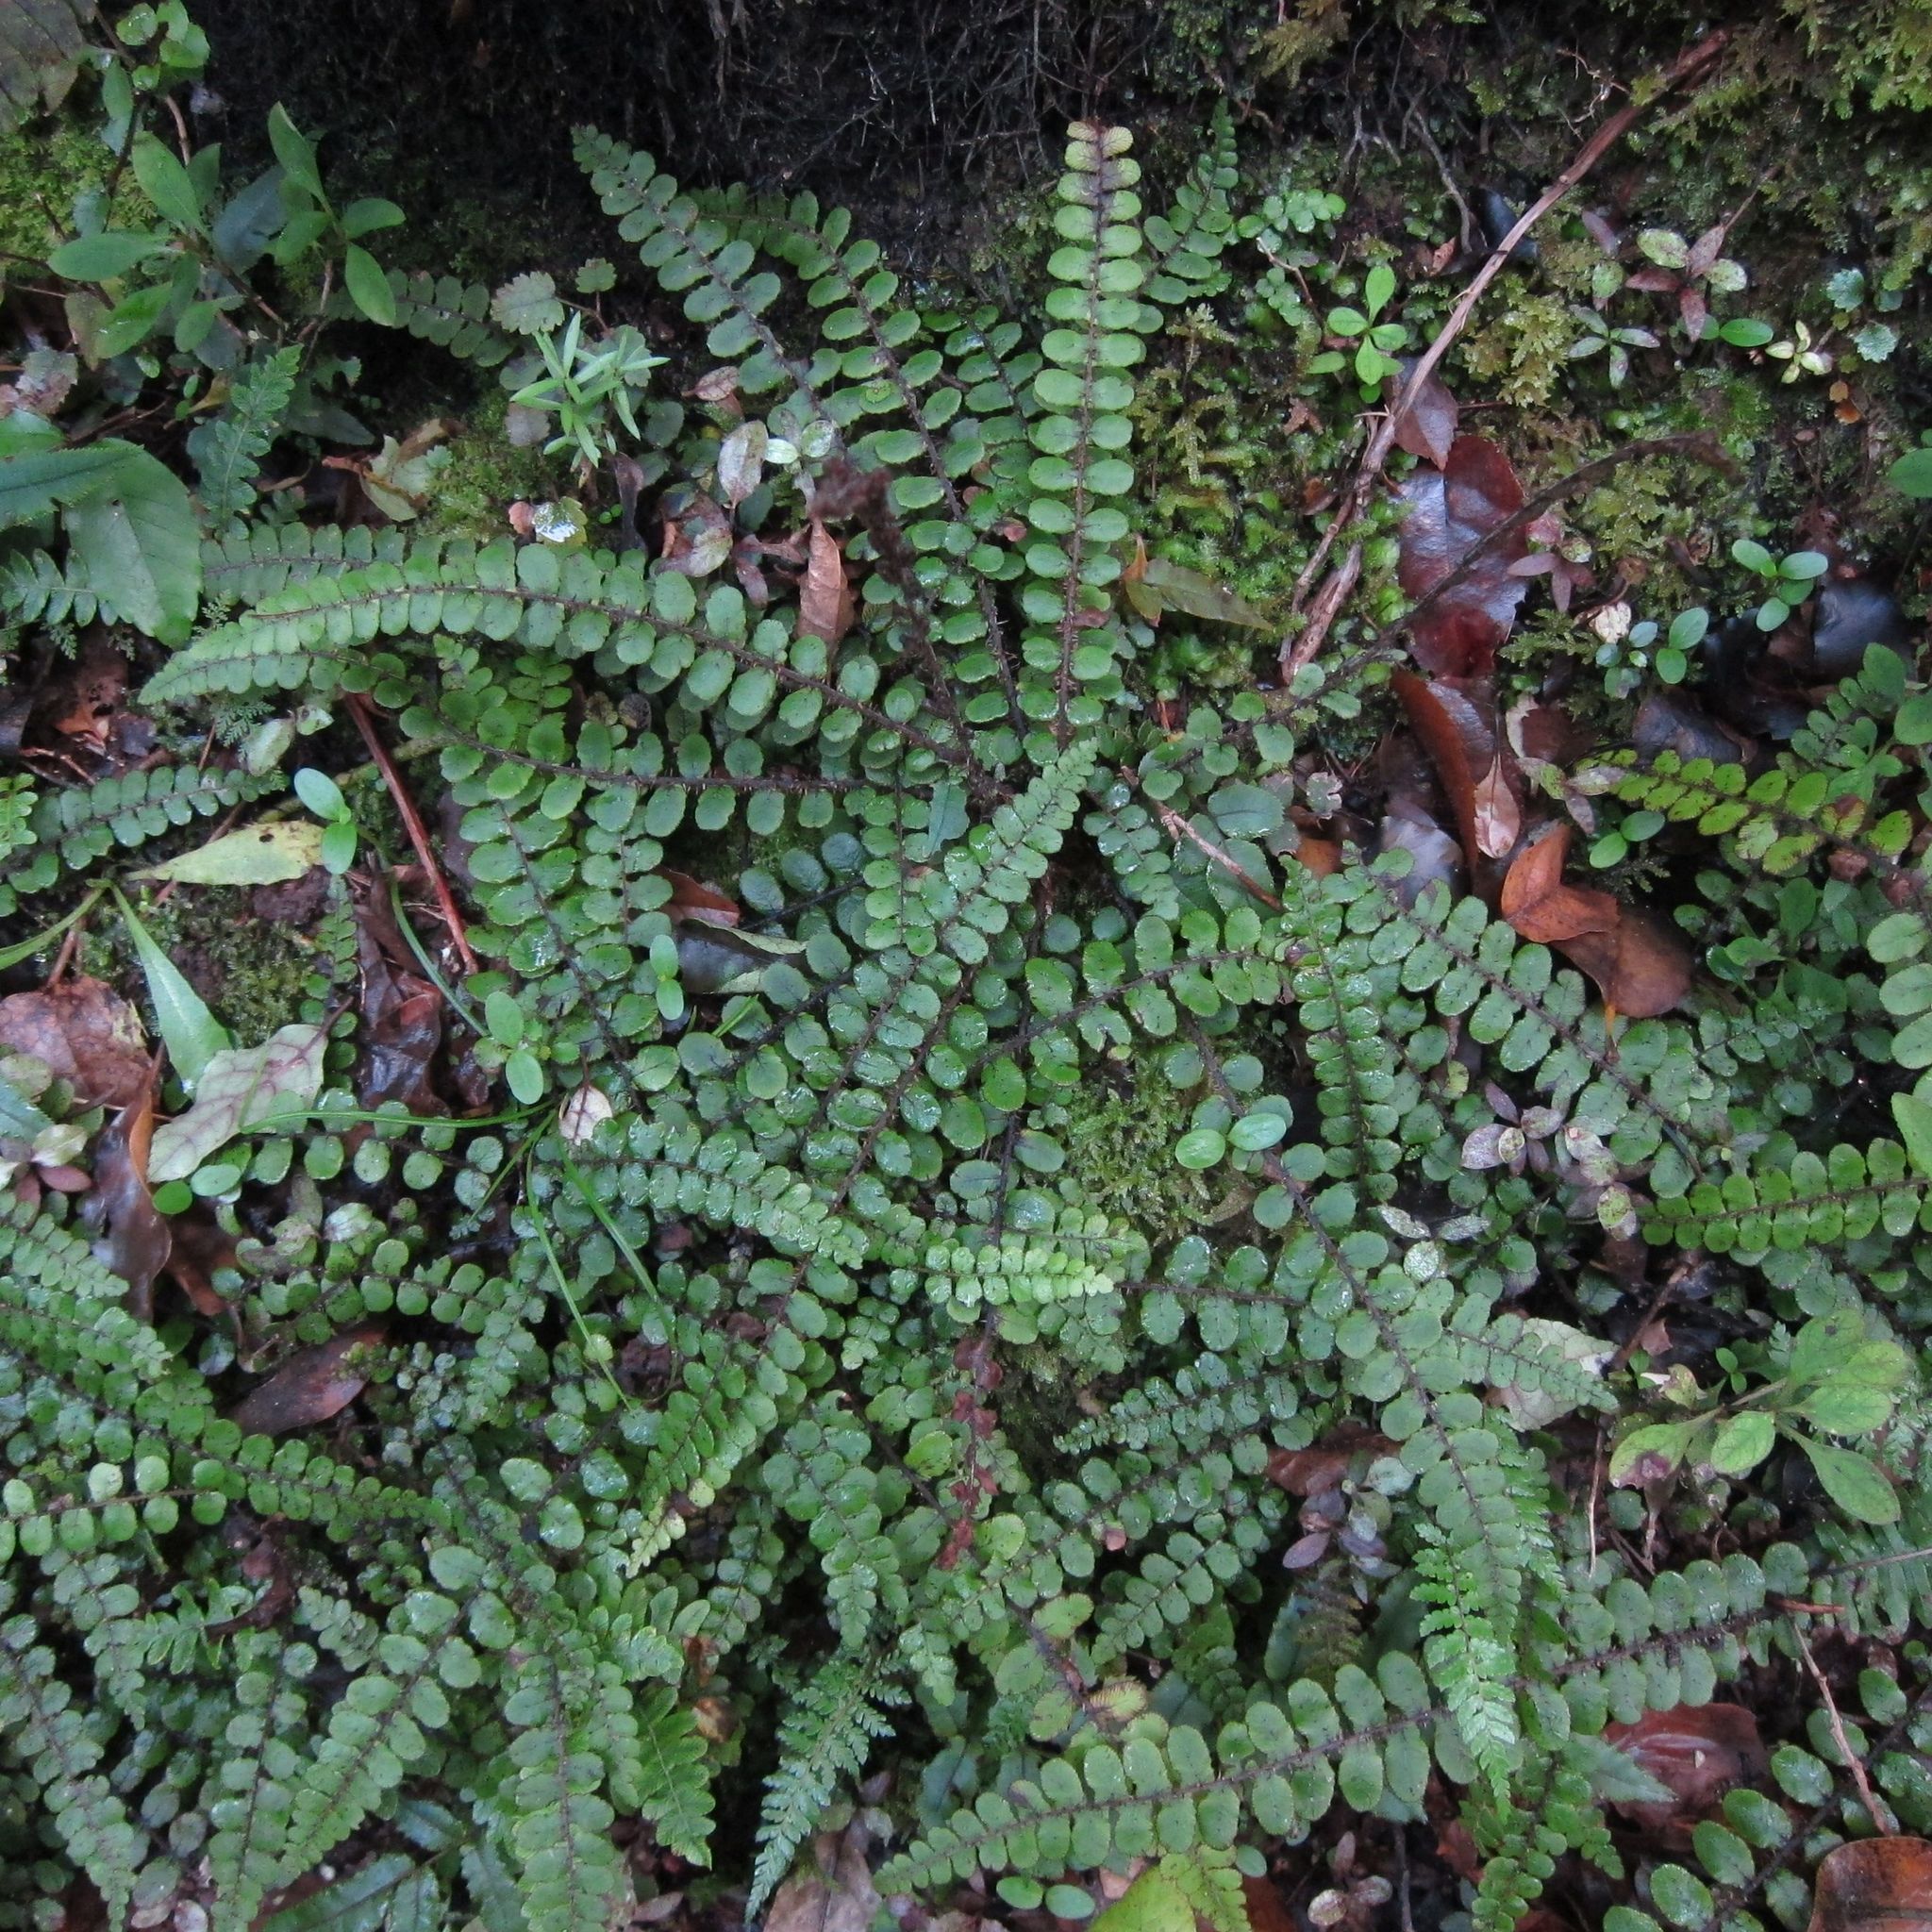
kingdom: Plantae
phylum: Tracheophyta
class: Polypodiopsida
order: Polypodiales
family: Blechnaceae
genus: Cranfillia
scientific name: Cranfillia fluviatilis
